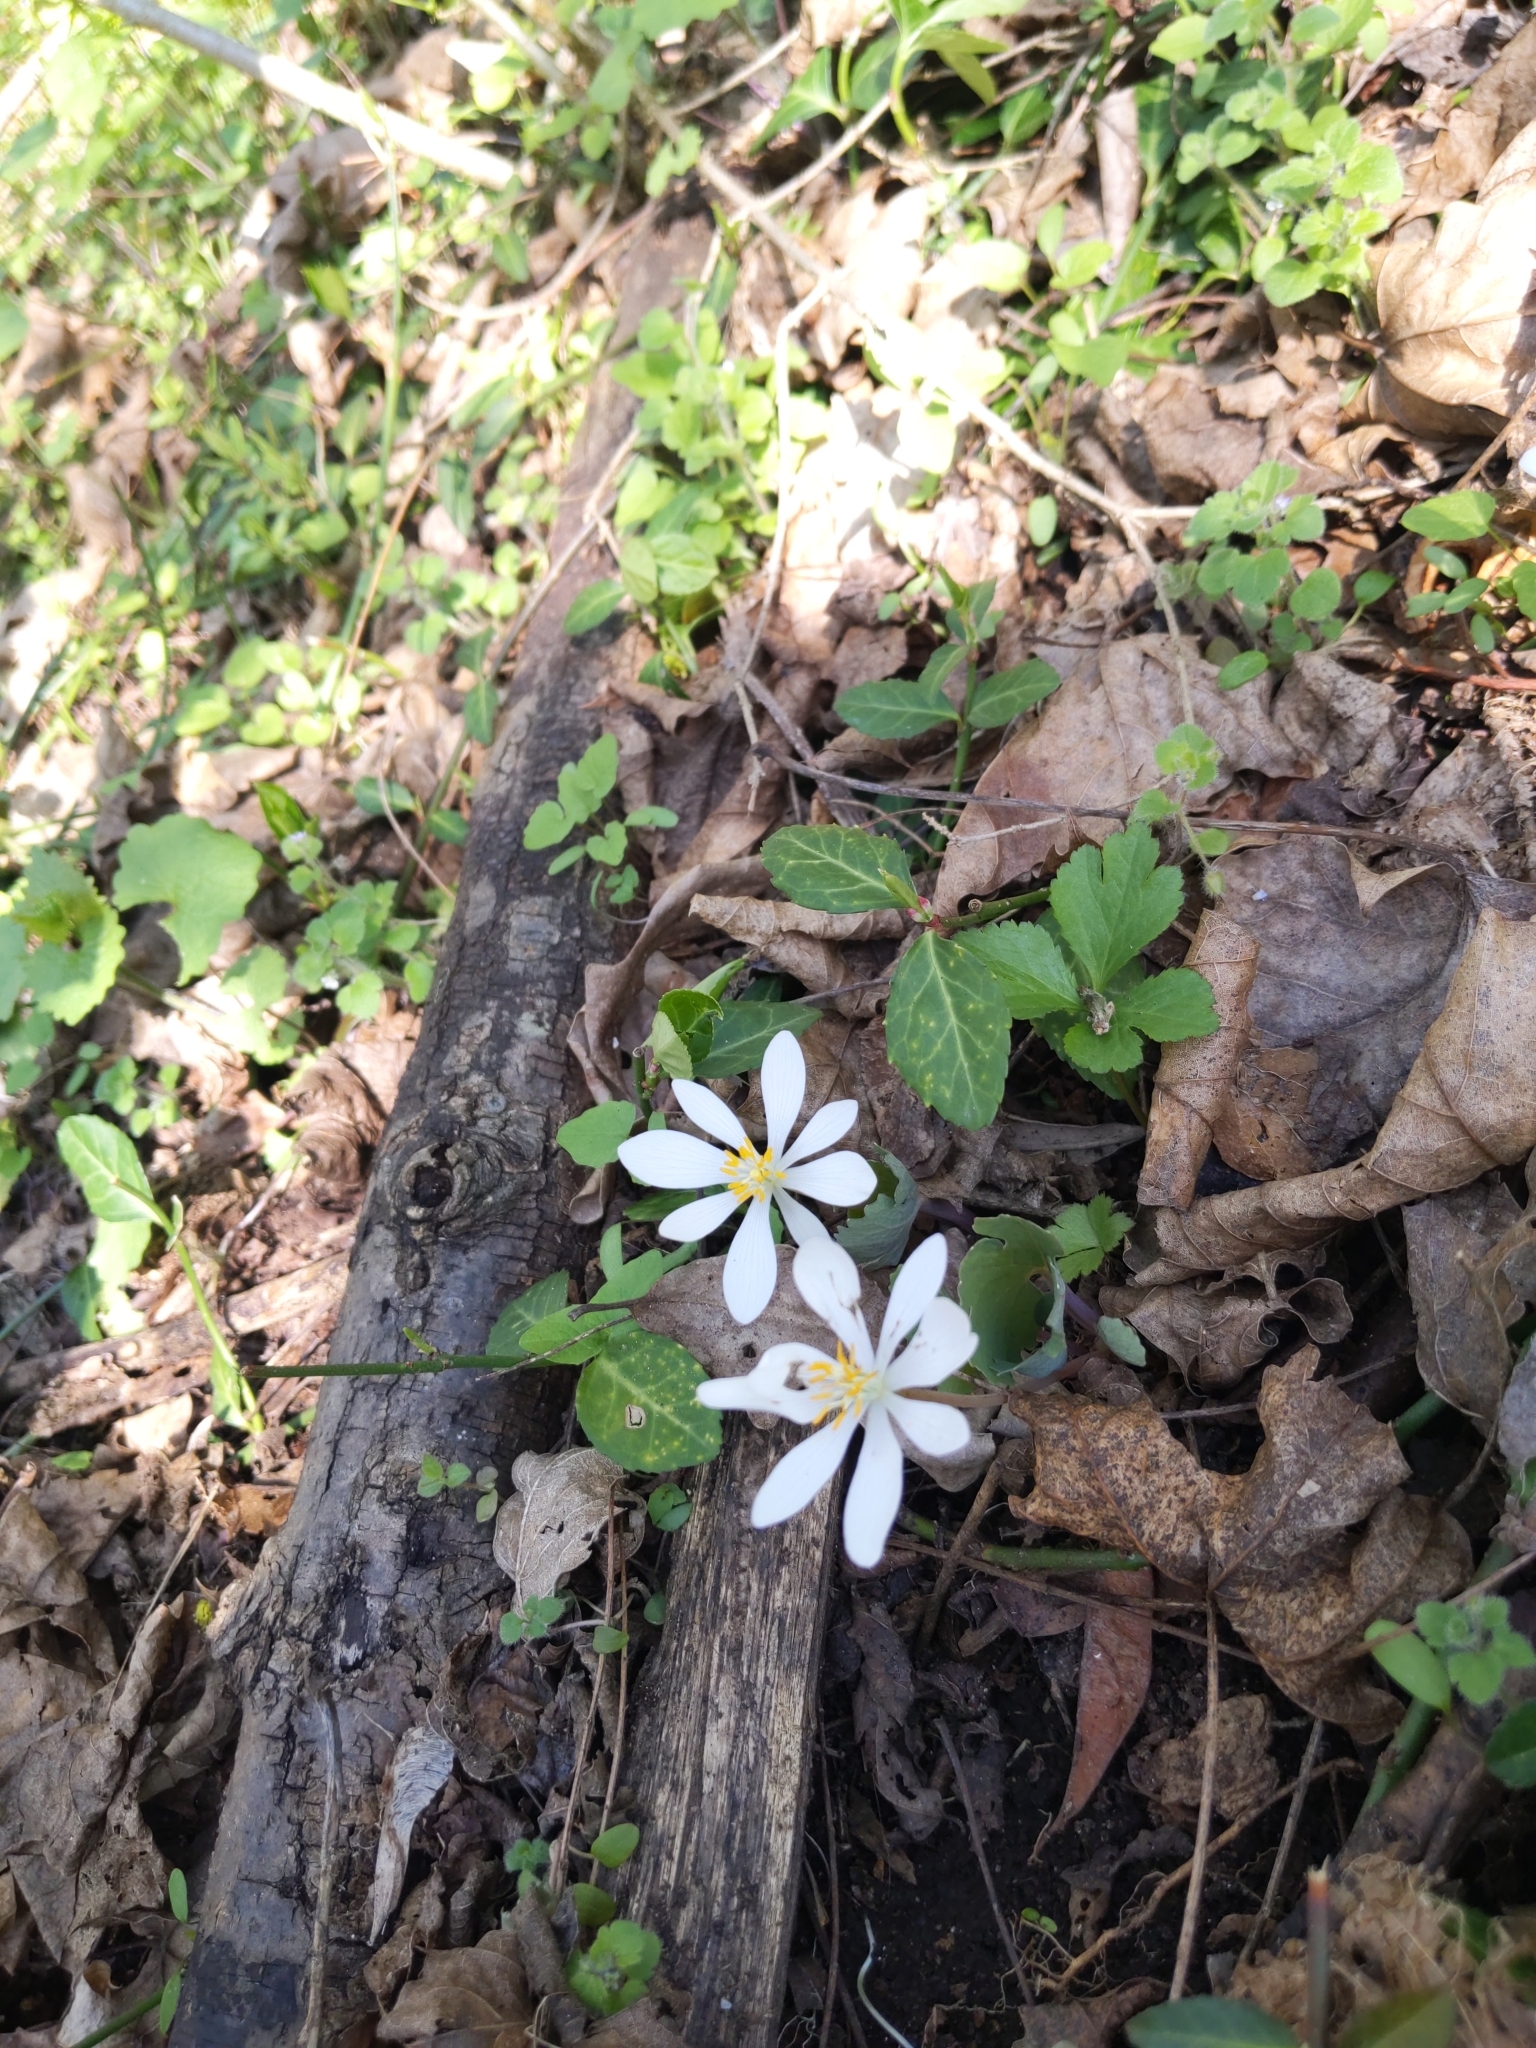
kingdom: Plantae
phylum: Tracheophyta
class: Magnoliopsida
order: Ranunculales
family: Papaveraceae
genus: Sanguinaria
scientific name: Sanguinaria canadensis
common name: Bloodroot
